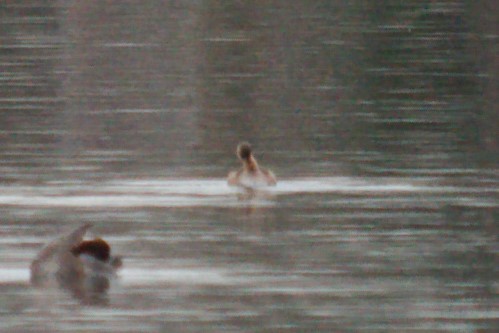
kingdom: Animalia
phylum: Chordata
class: Aves
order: Podicipediformes
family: Podicipedidae
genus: Tachybaptus
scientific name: Tachybaptus ruficollis
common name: Little grebe
